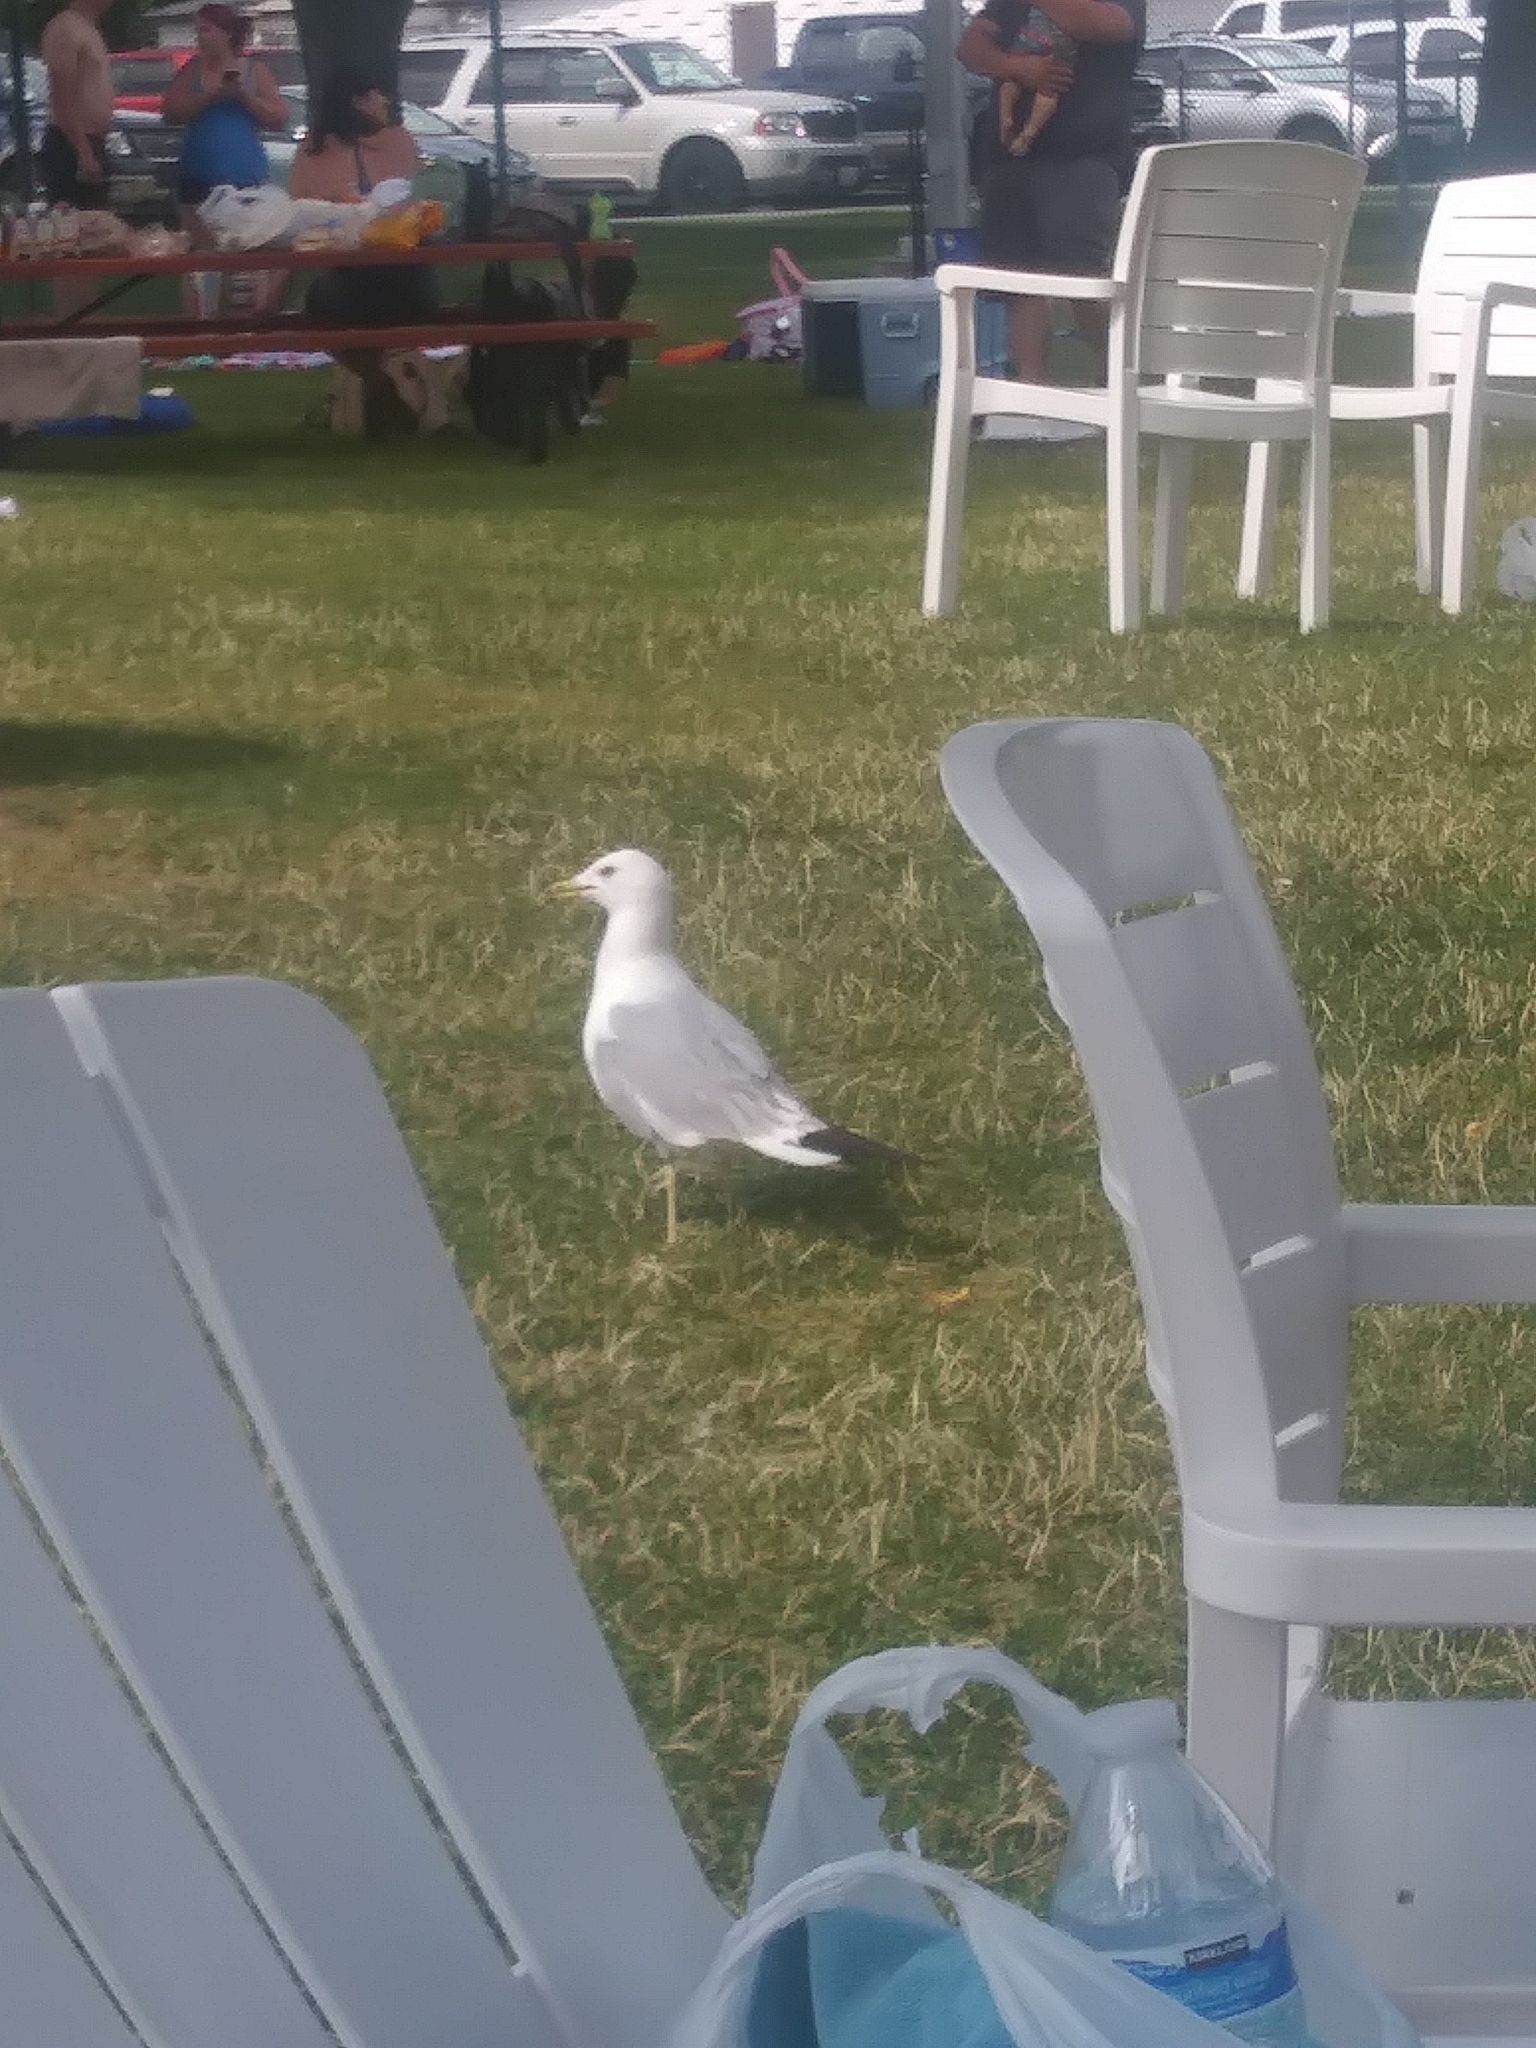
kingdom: Animalia
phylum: Chordata
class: Aves
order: Charadriiformes
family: Laridae
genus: Larus
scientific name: Larus delawarensis
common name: Ring-billed gull
